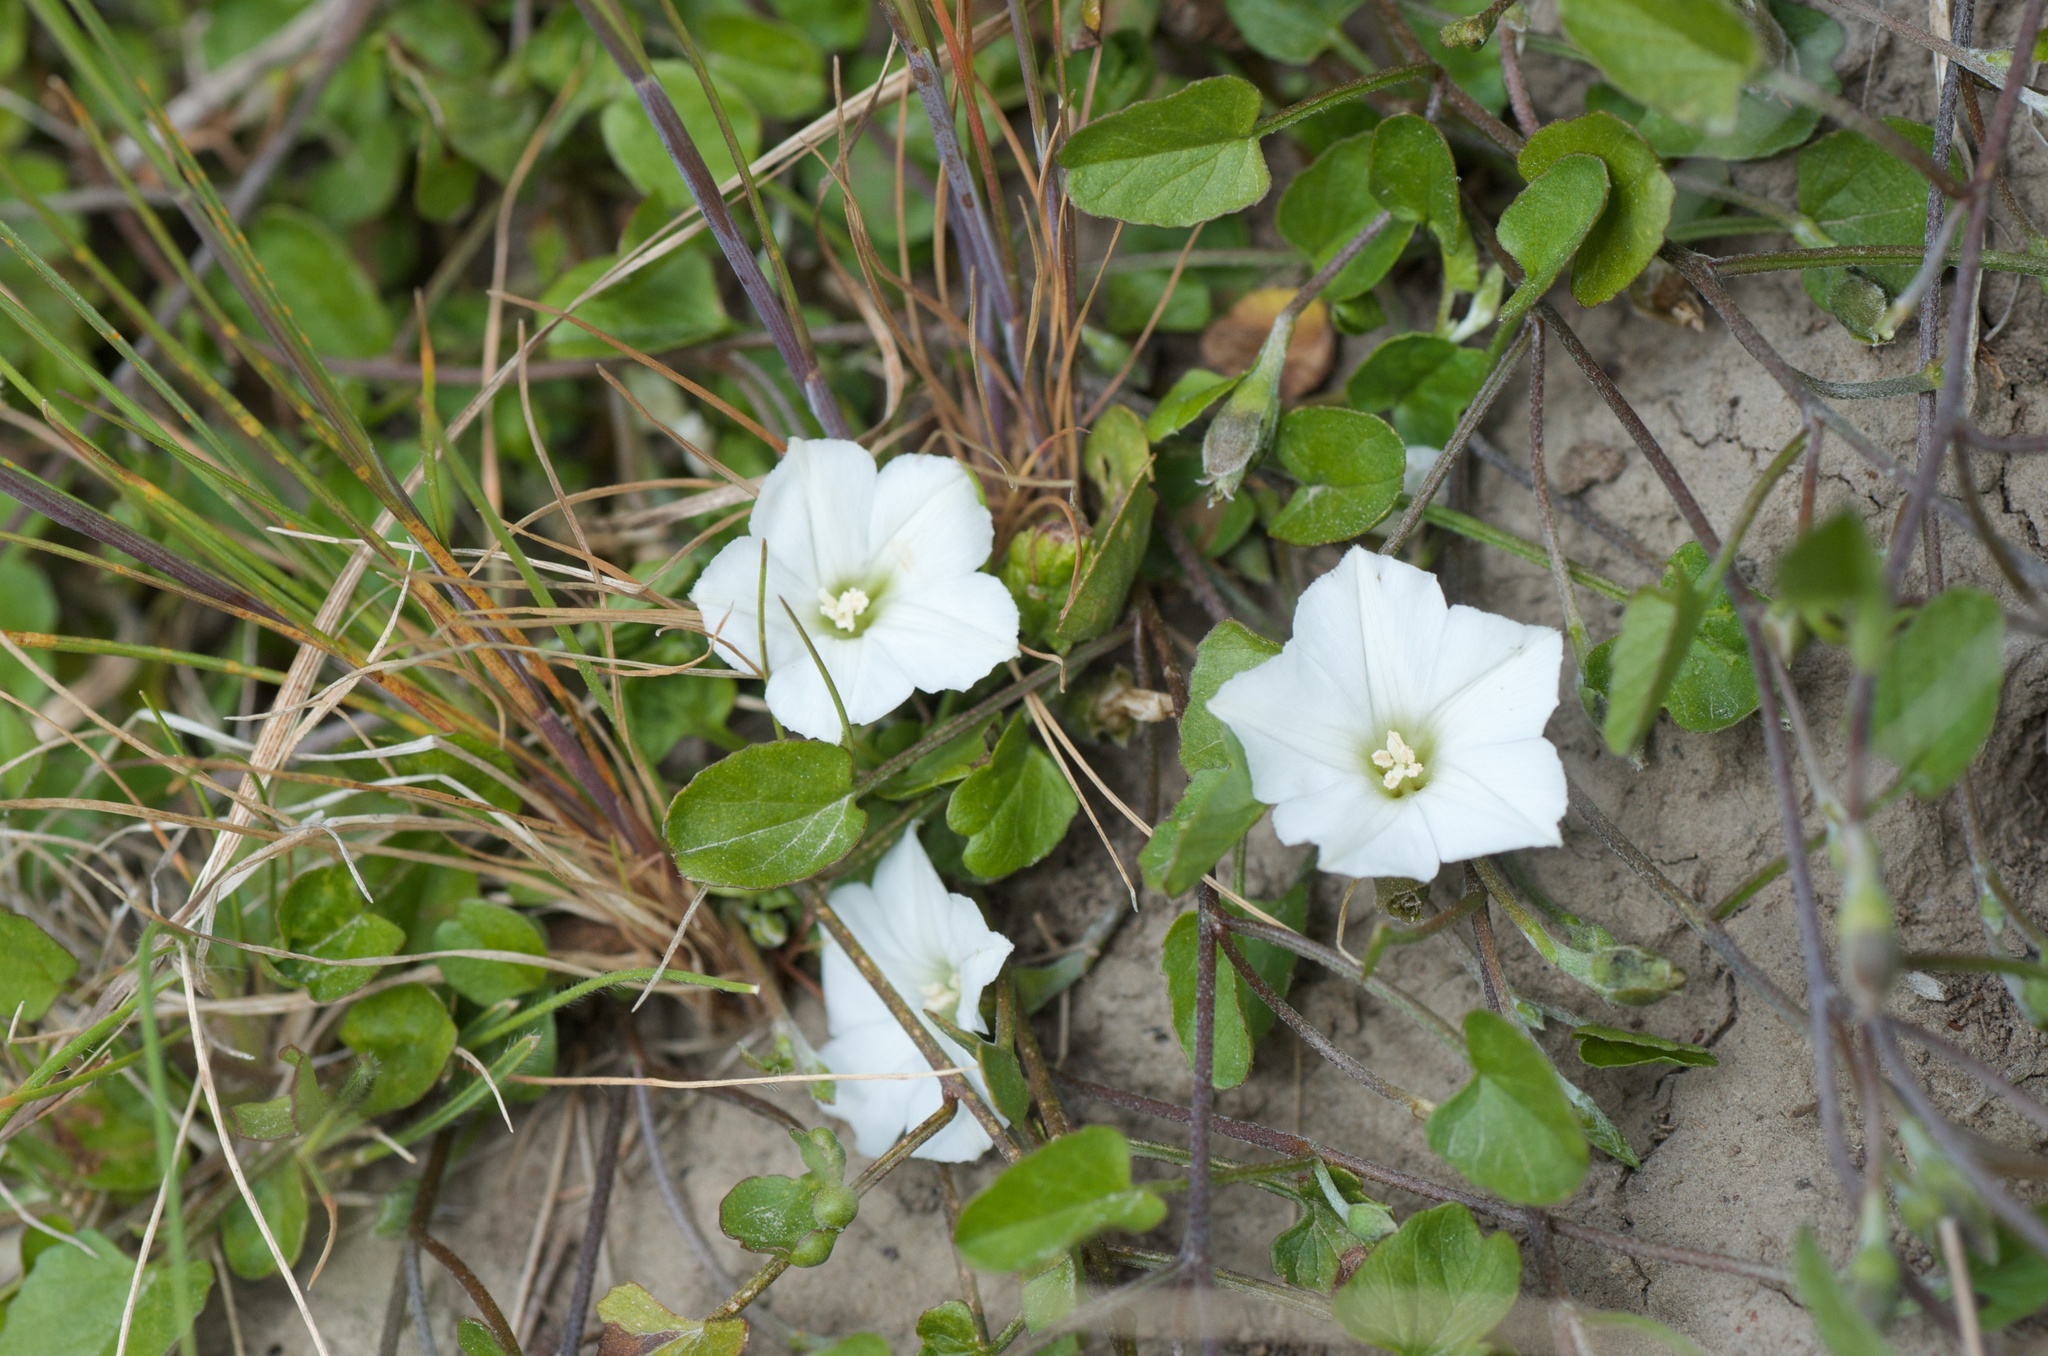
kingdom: Plantae
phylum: Tracheophyta
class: Magnoliopsida
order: Solanales
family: Convolvulaceae
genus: Convolvulus
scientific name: Convolvulus waitaha
